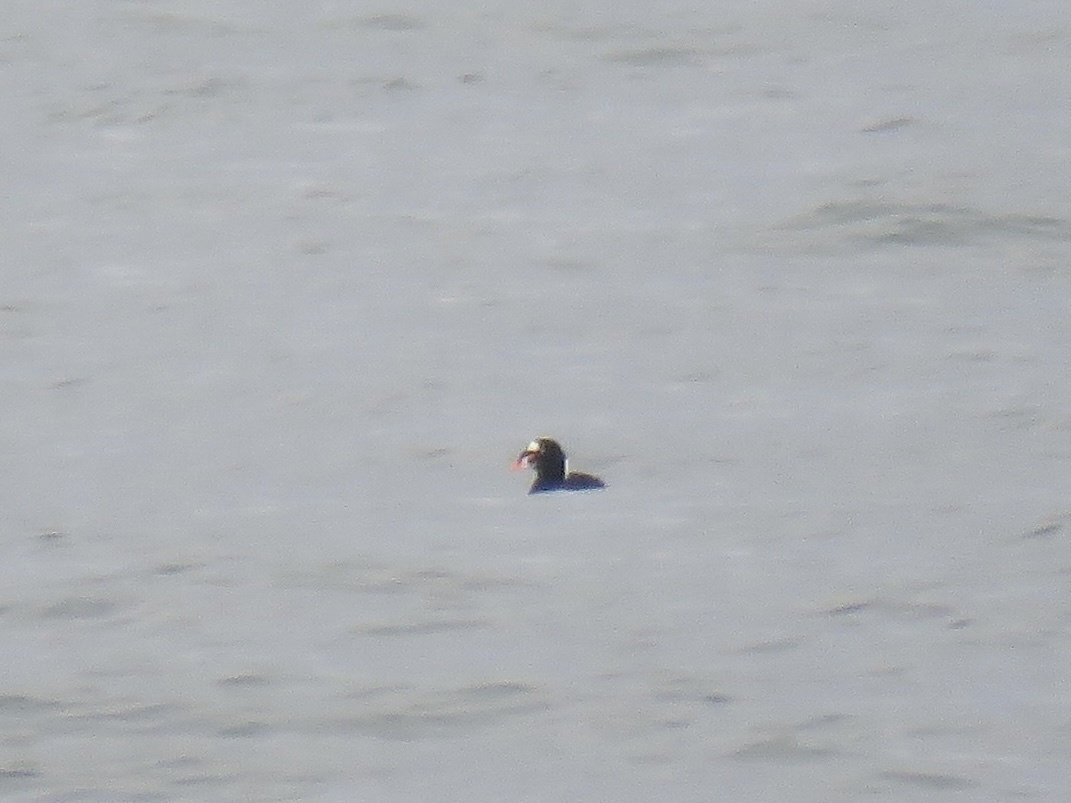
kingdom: Animalia
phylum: Chordata
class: Aves
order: Anseriformes
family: Anatidae
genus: Melanitta
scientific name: Melanitta perspicillata
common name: Surf scoter
